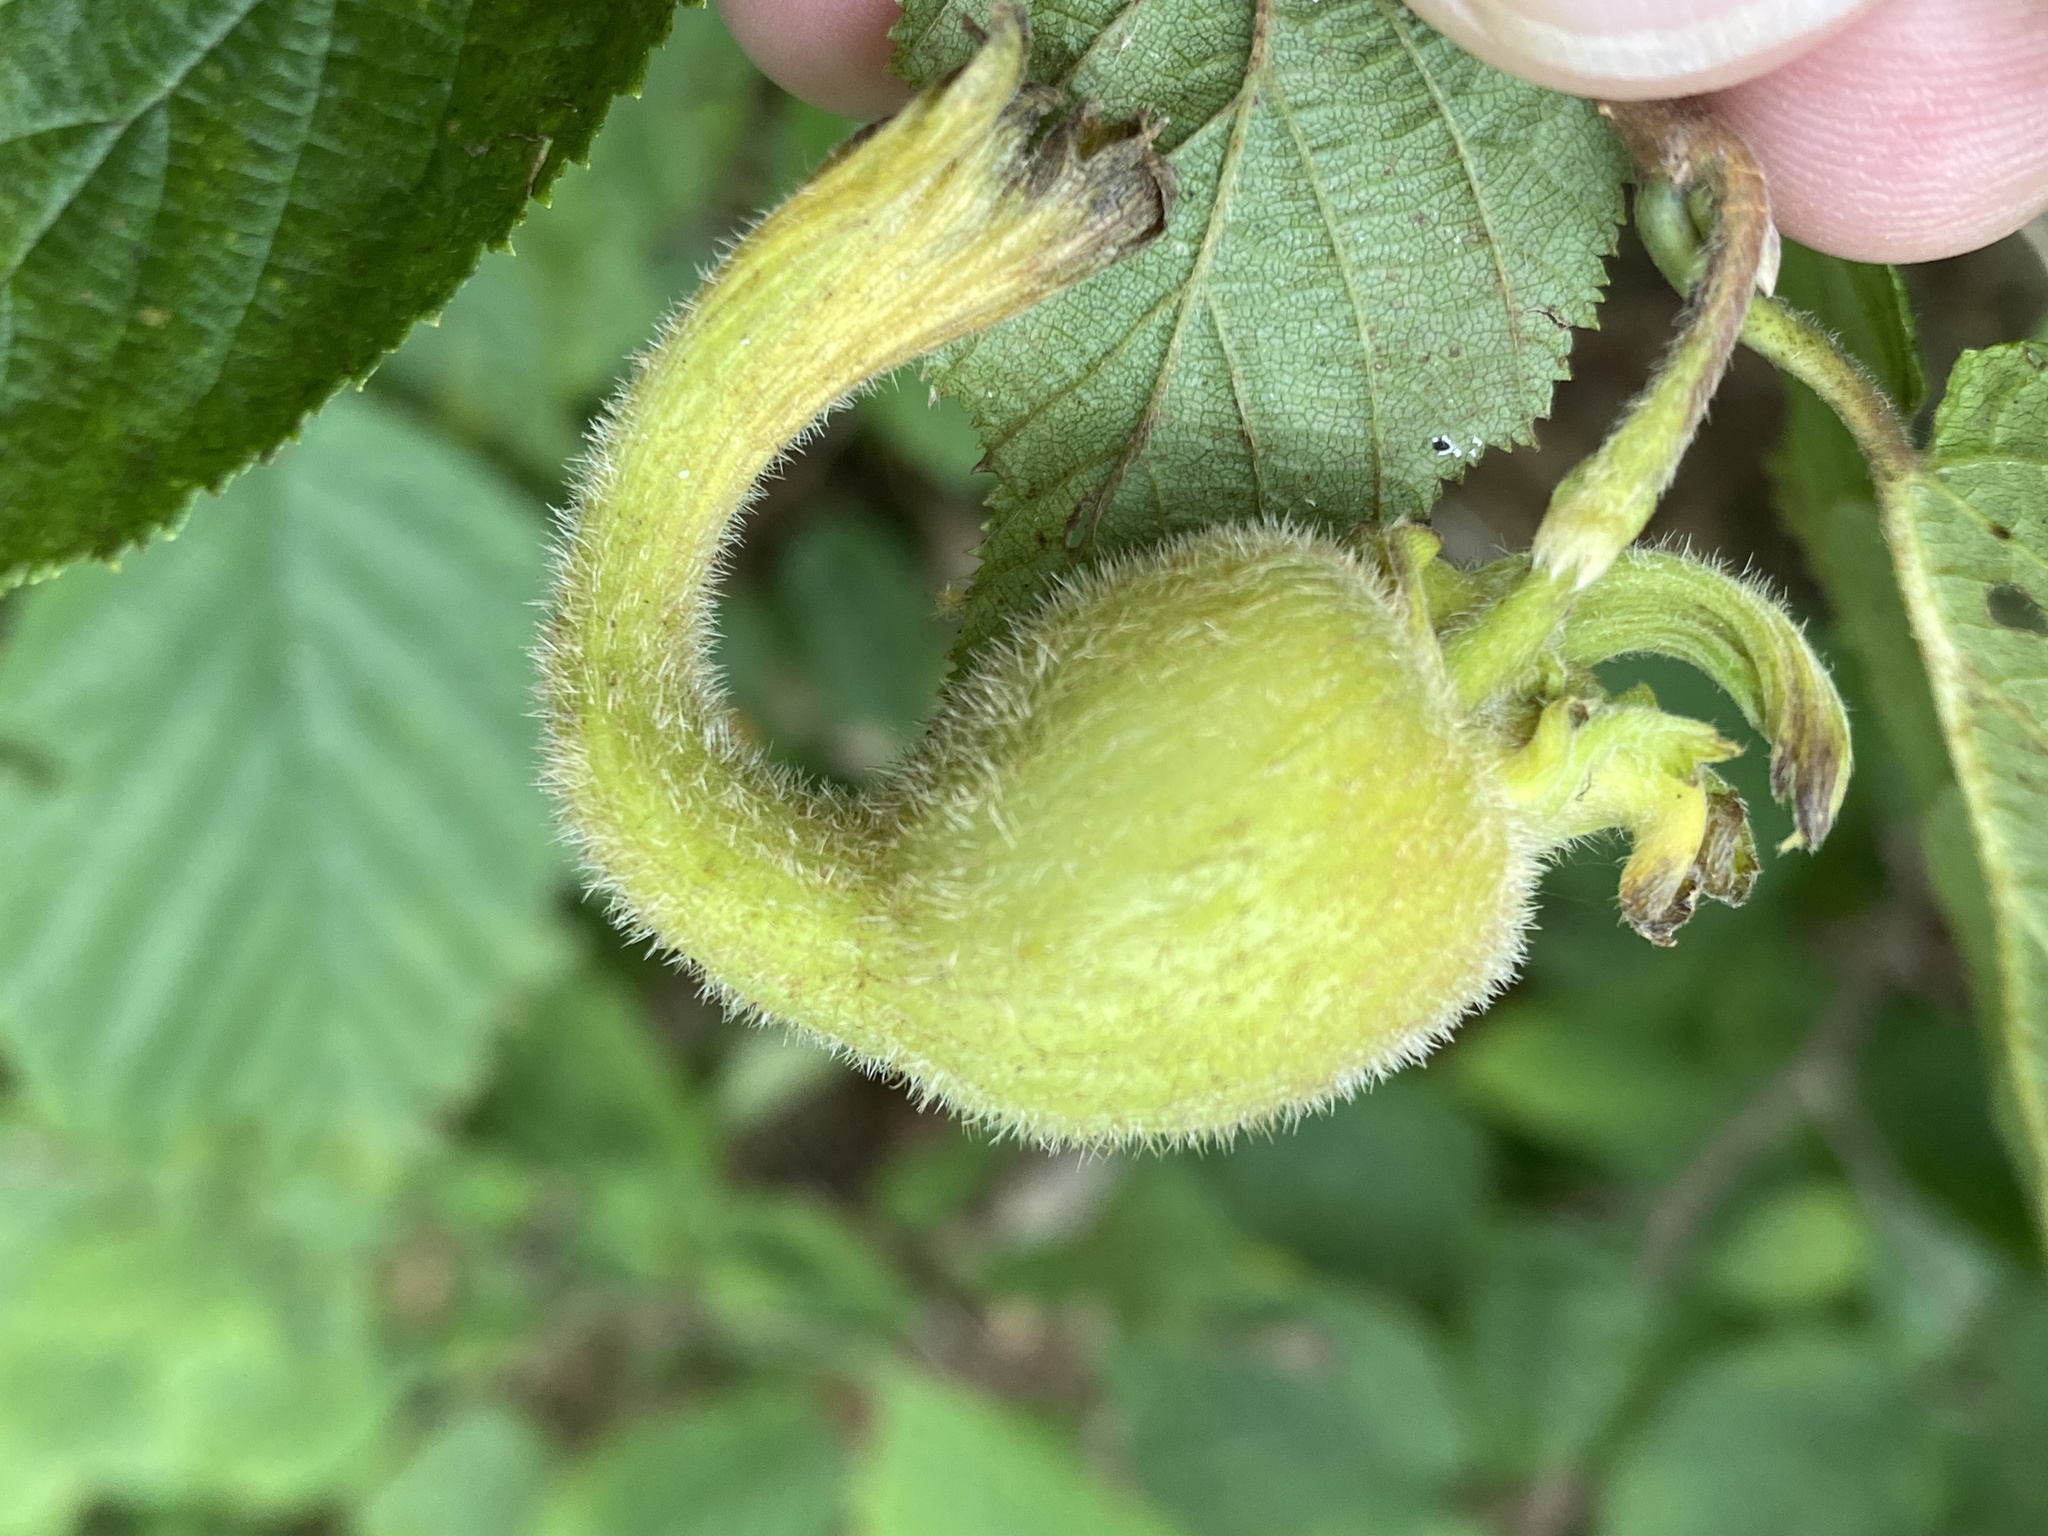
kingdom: Plantae
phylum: Tracheophyta
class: Magnoliopsida
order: Fagales
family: Betulaceae
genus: Corylus
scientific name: Corylus cornuta
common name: Beaked hazel
